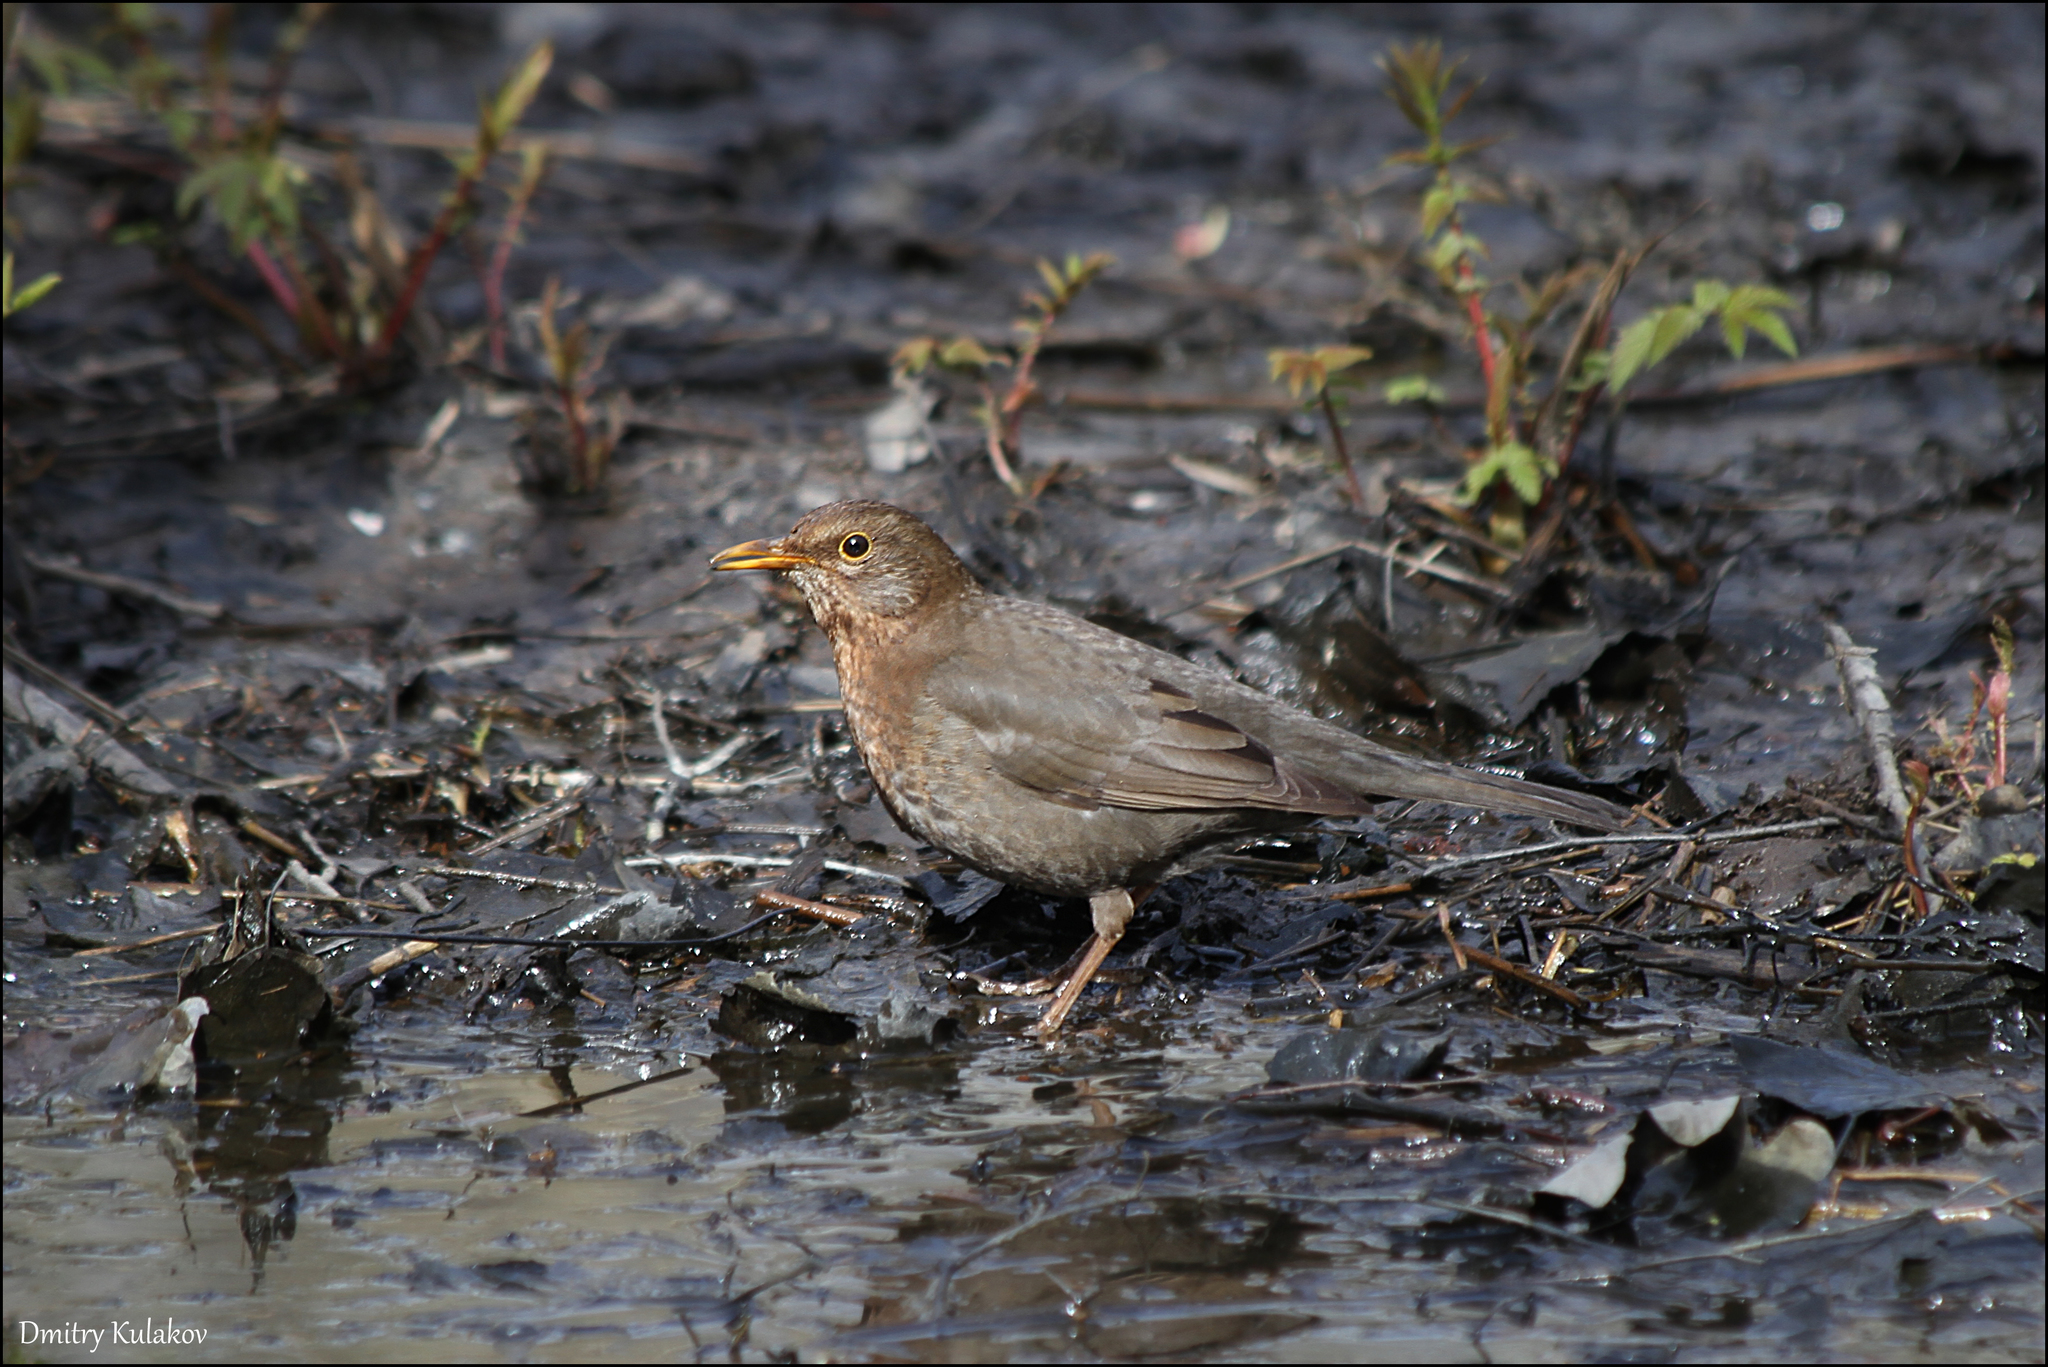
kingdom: Animalia
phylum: Chordata
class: Aves
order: Passeriformes
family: Turdidae
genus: Turdus
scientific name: Turdus merula
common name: Common blackbird
